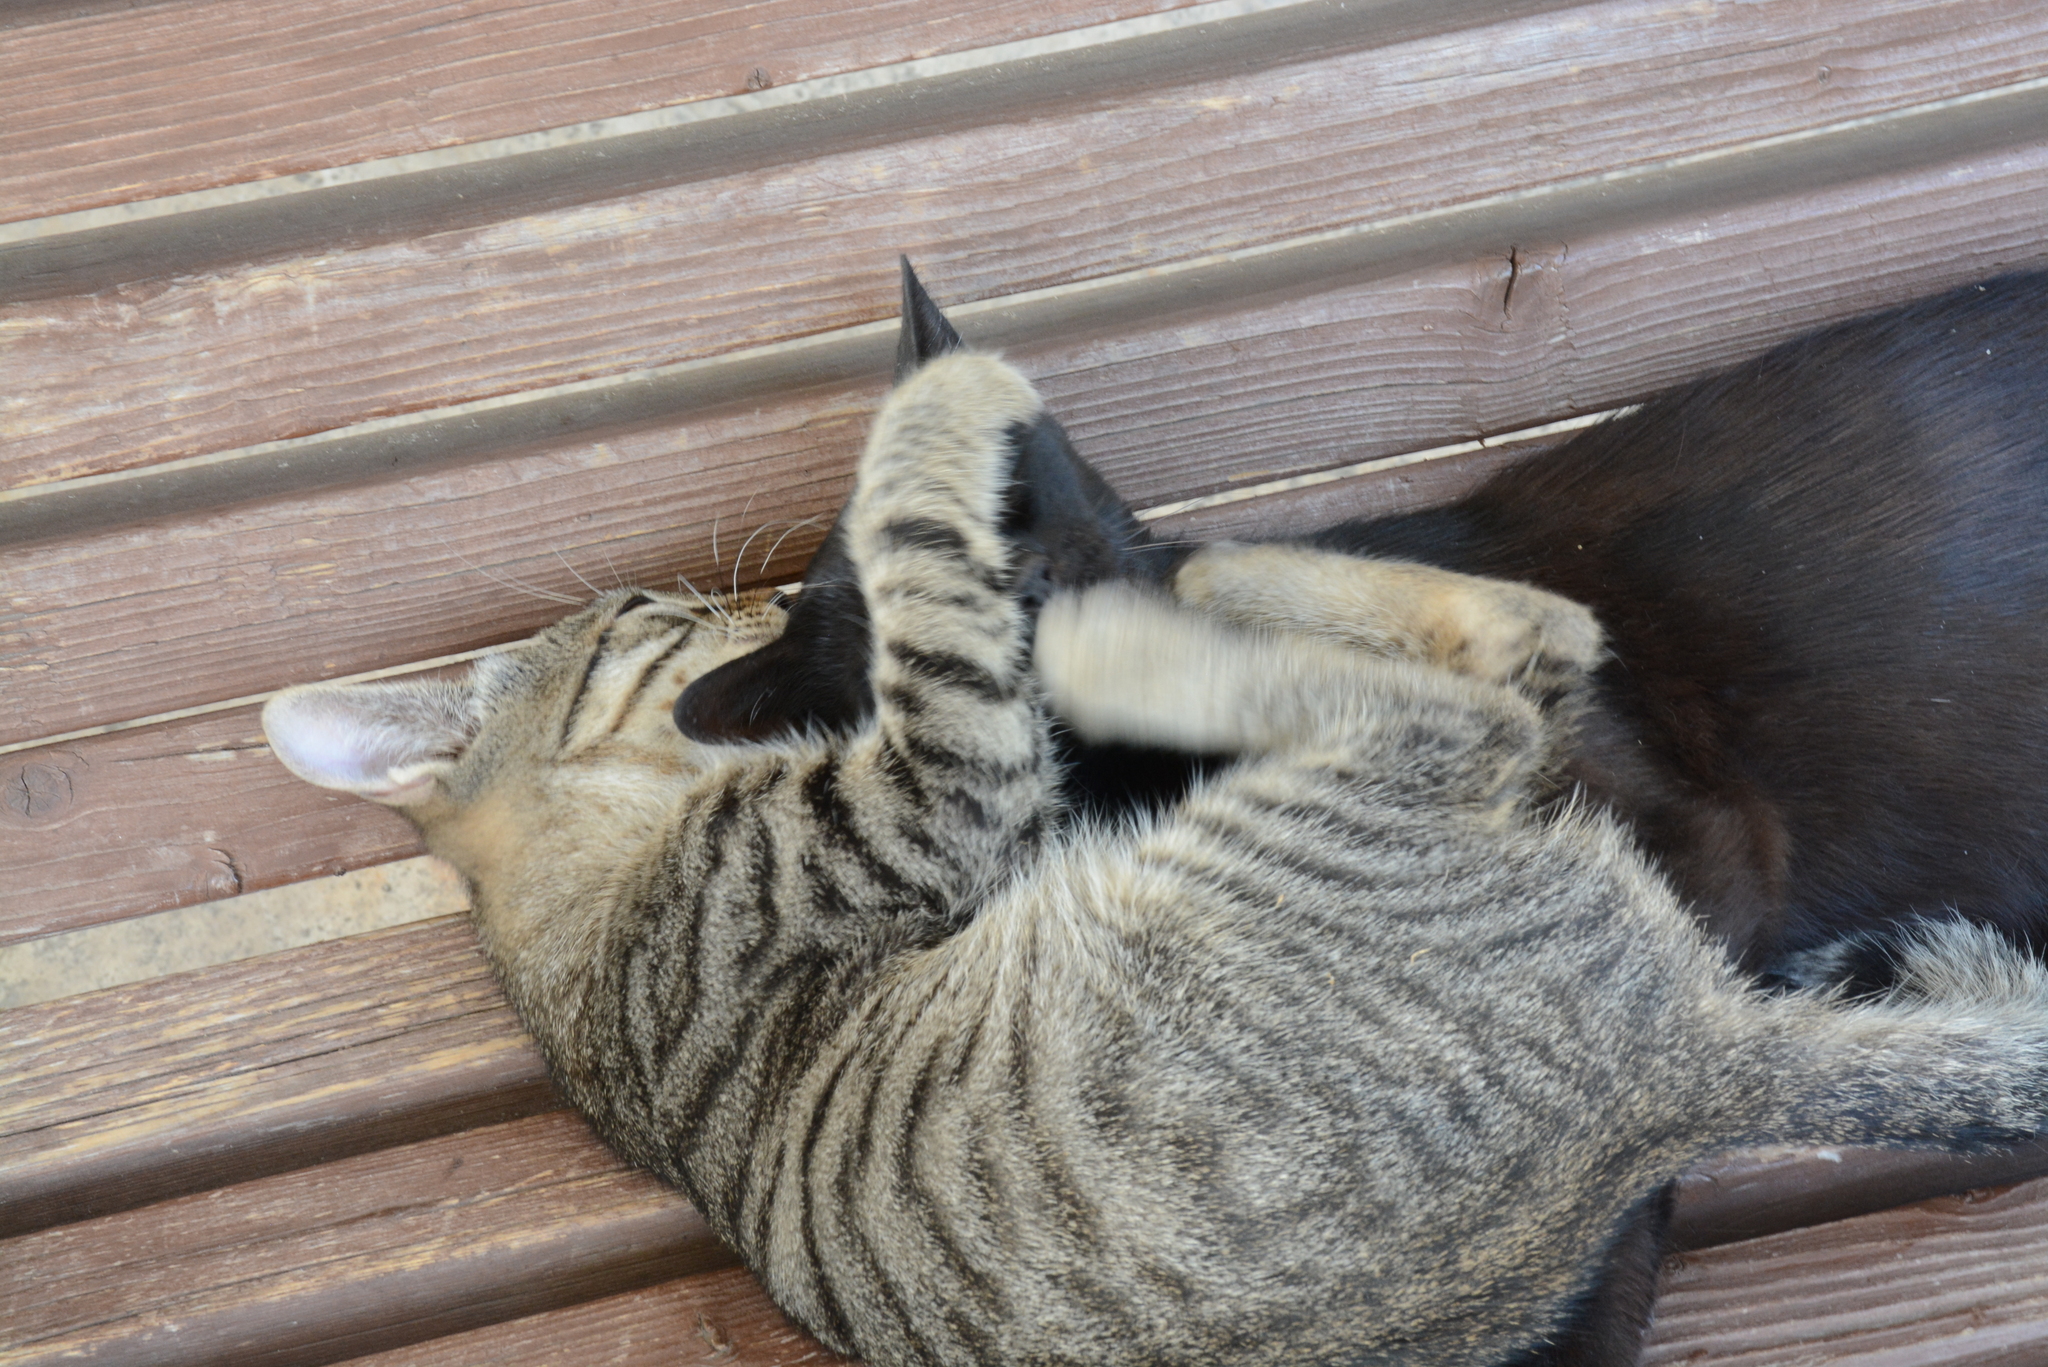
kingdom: Animalia
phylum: Chordata
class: Mammalia
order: Carnivora
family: Felidae
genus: Felis
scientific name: Felis catus
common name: Domestic cat
